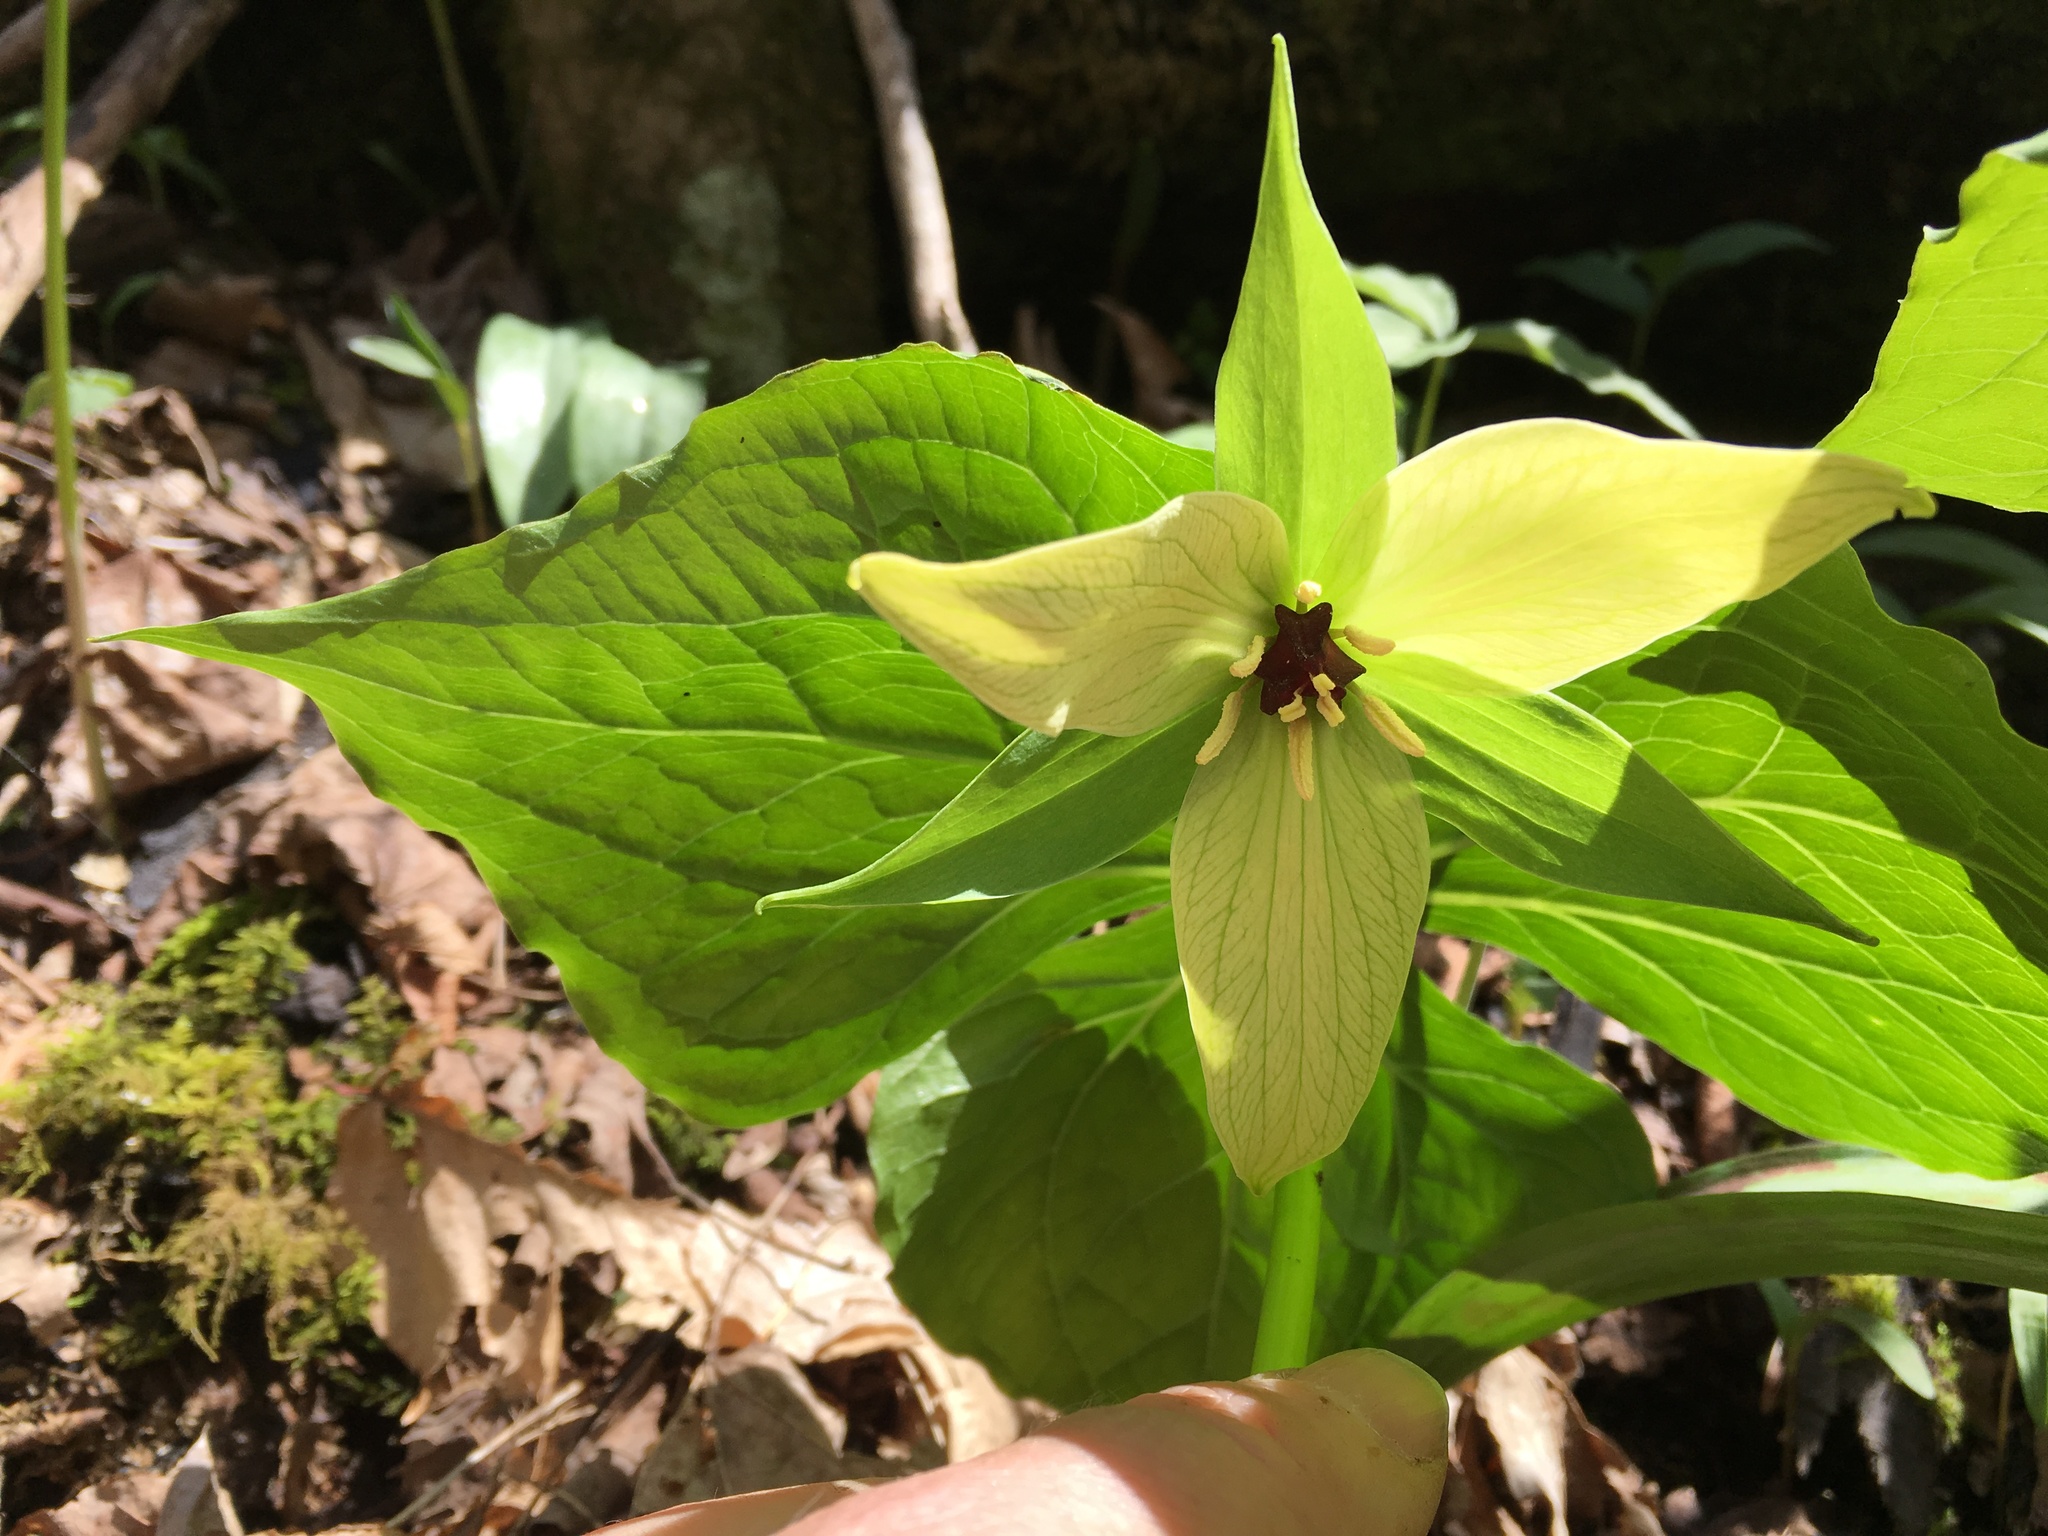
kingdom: Plantae
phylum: Tracheophyta
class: Liliopsida
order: Liliales
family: Melanthiaceae
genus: Trillium
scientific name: Trillium erectum
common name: Purple trillium
